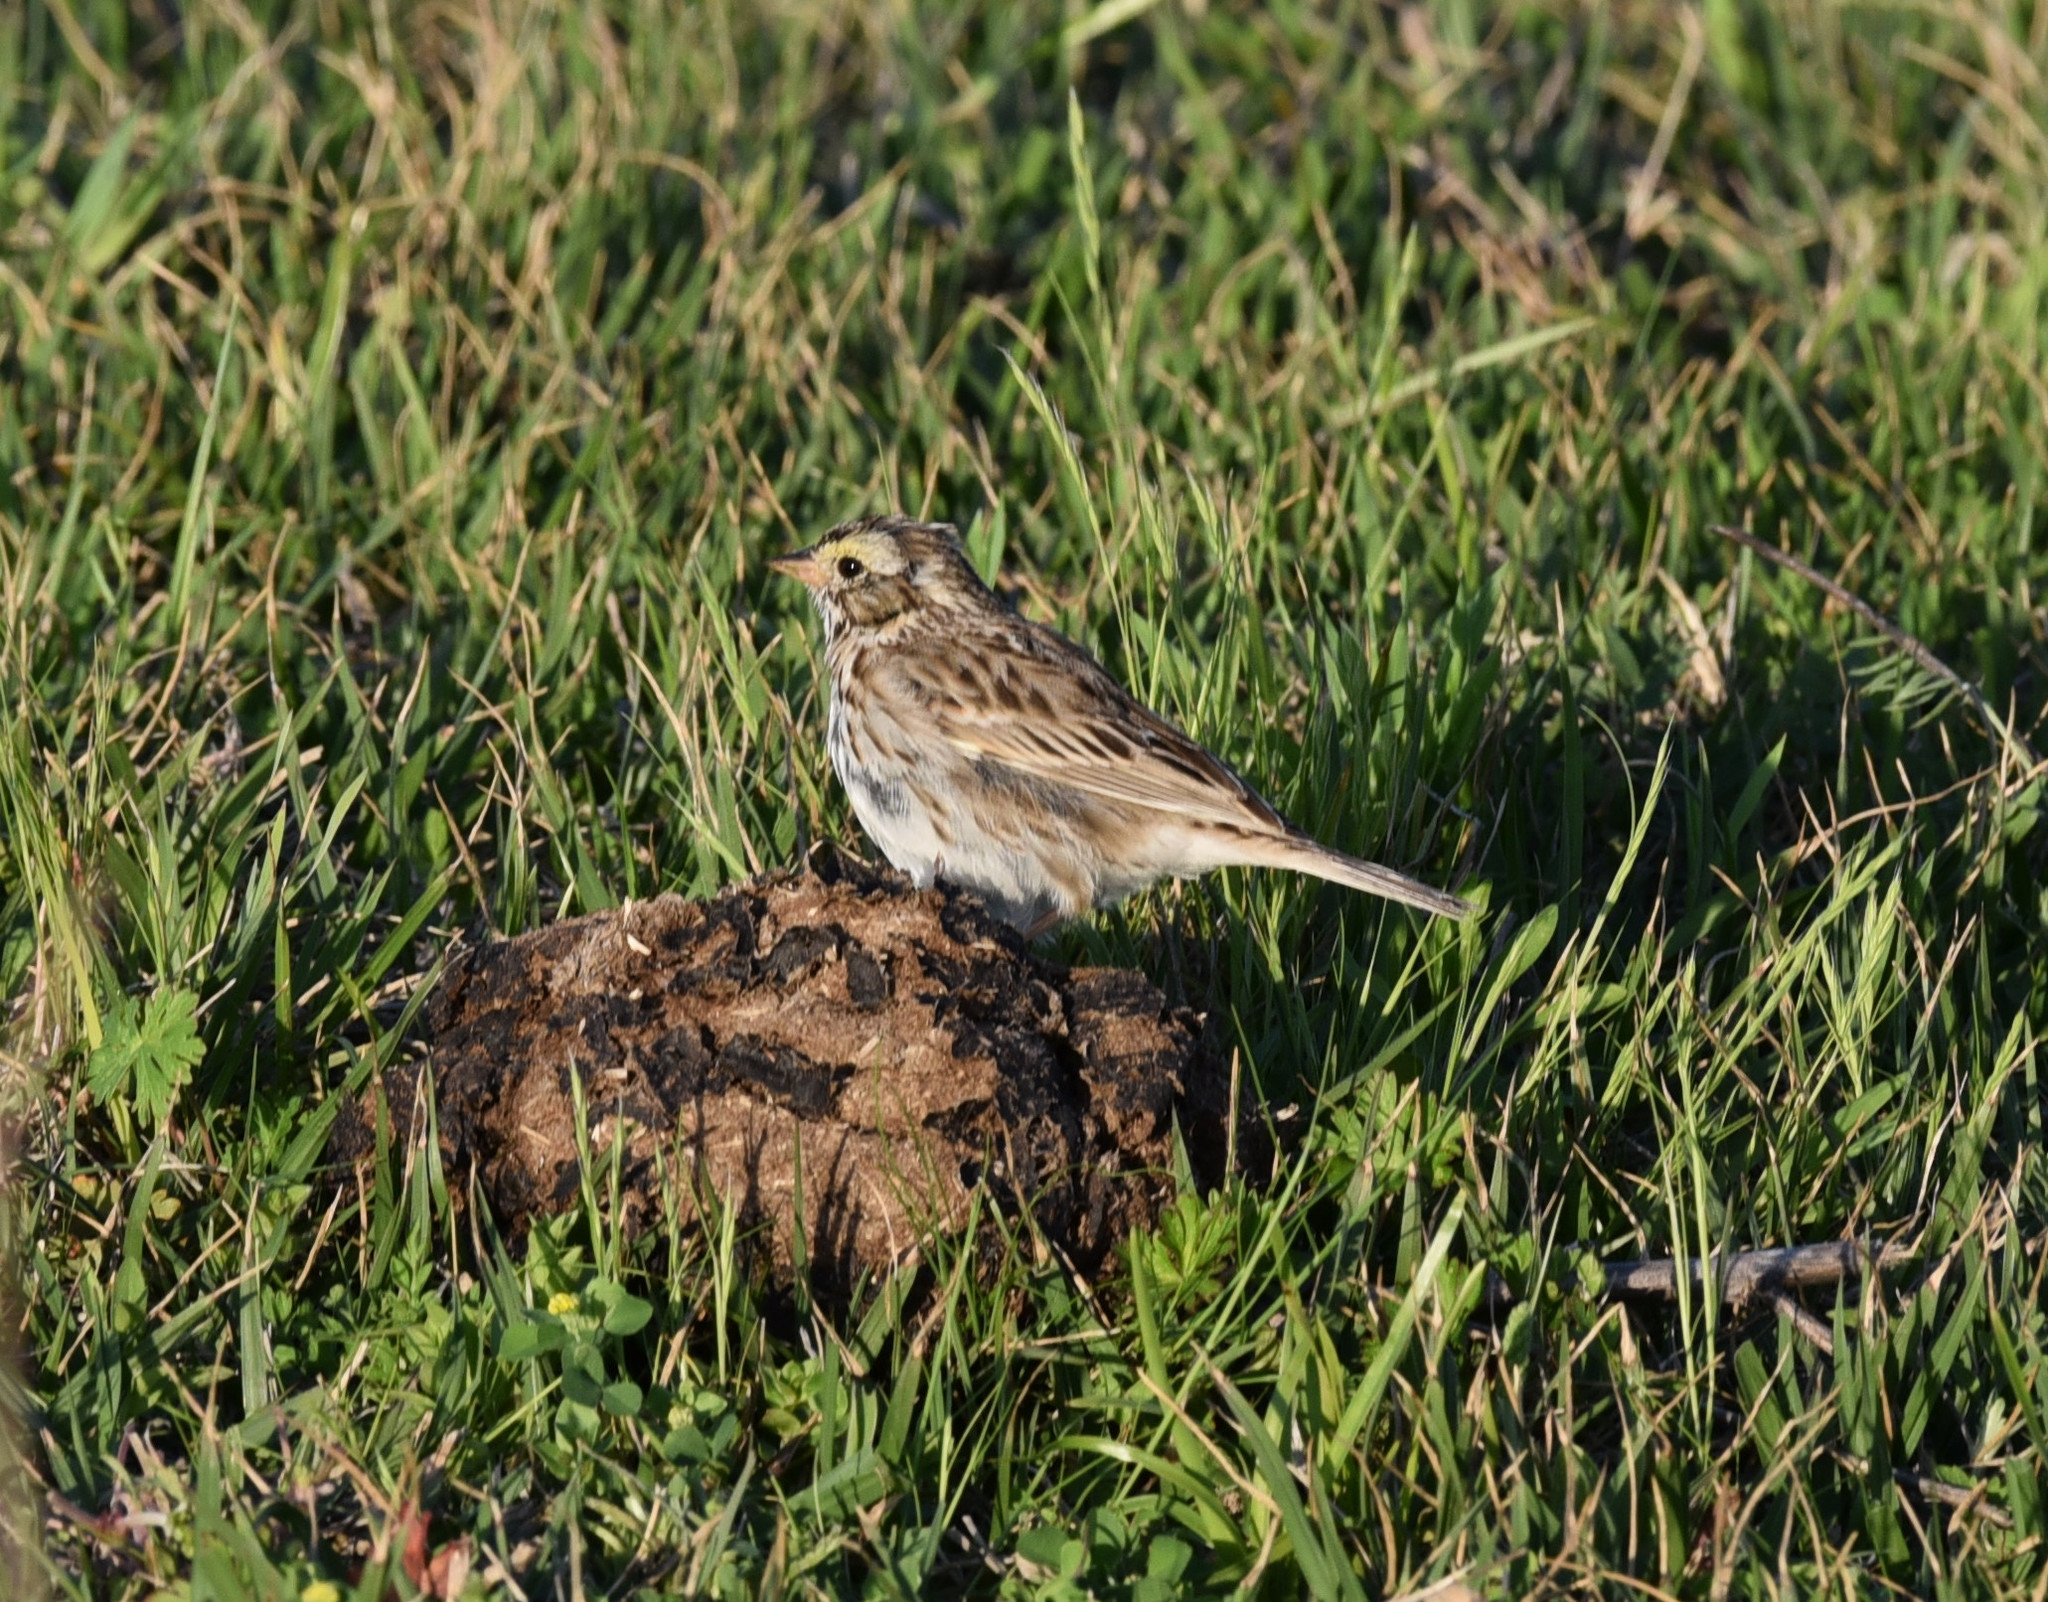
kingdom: Animalia
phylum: Chordata
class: Aves
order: Passeriformes
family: Passerellidae
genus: Passerculus
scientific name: Passerculus sandwichensis
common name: Savannah sparrow
